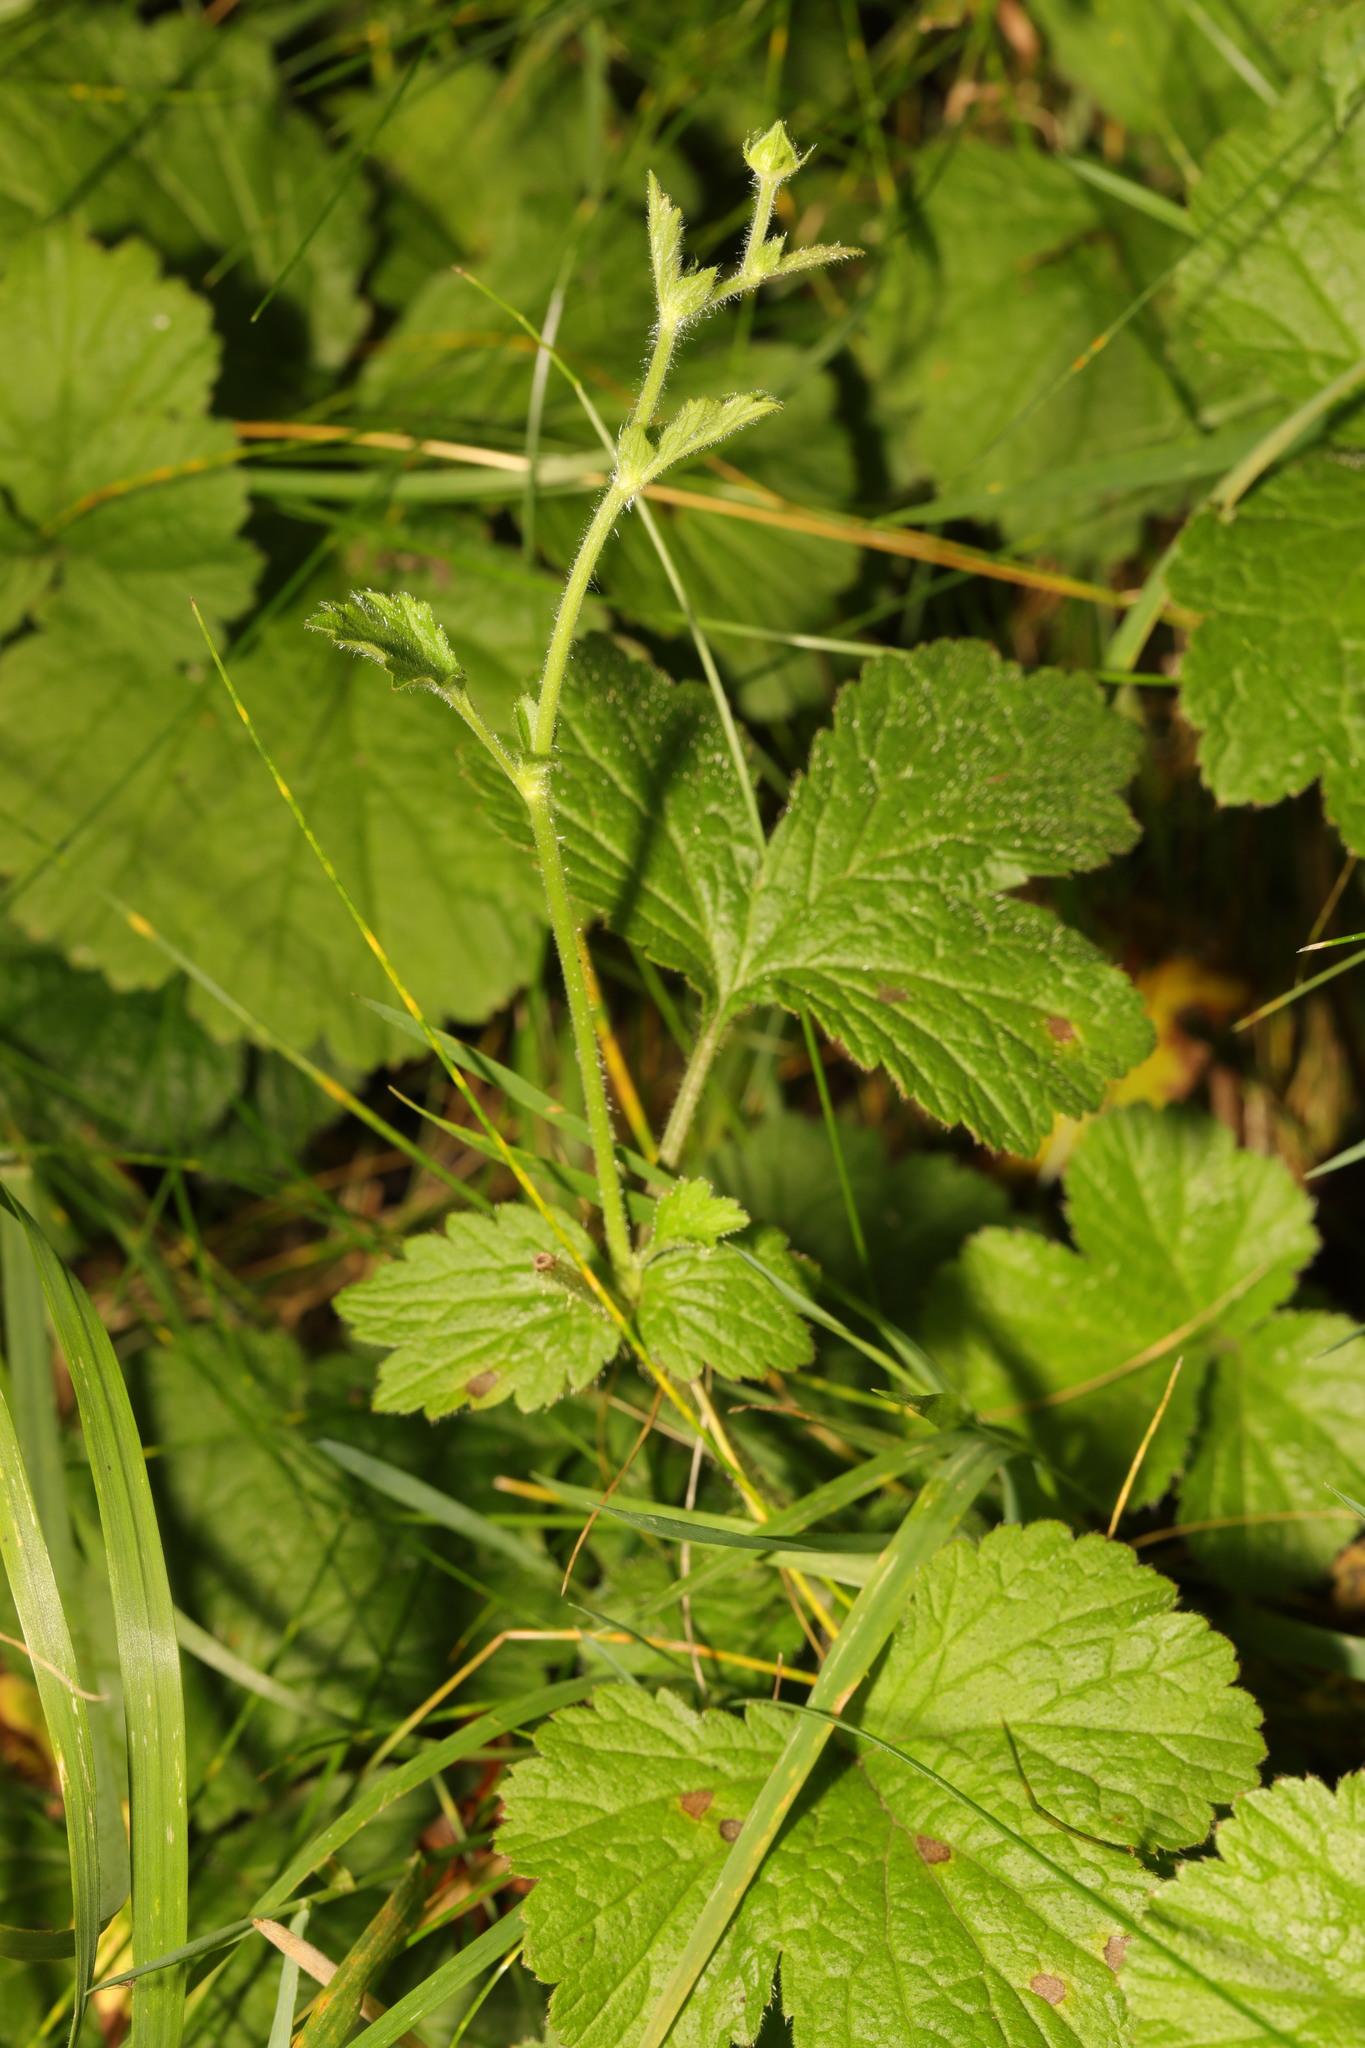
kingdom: Plantae
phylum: Tracheophyta
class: Magnoliopsida
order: Rosales
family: Rosaceae
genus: Geum
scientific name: Geum urbanum
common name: Wood avens
